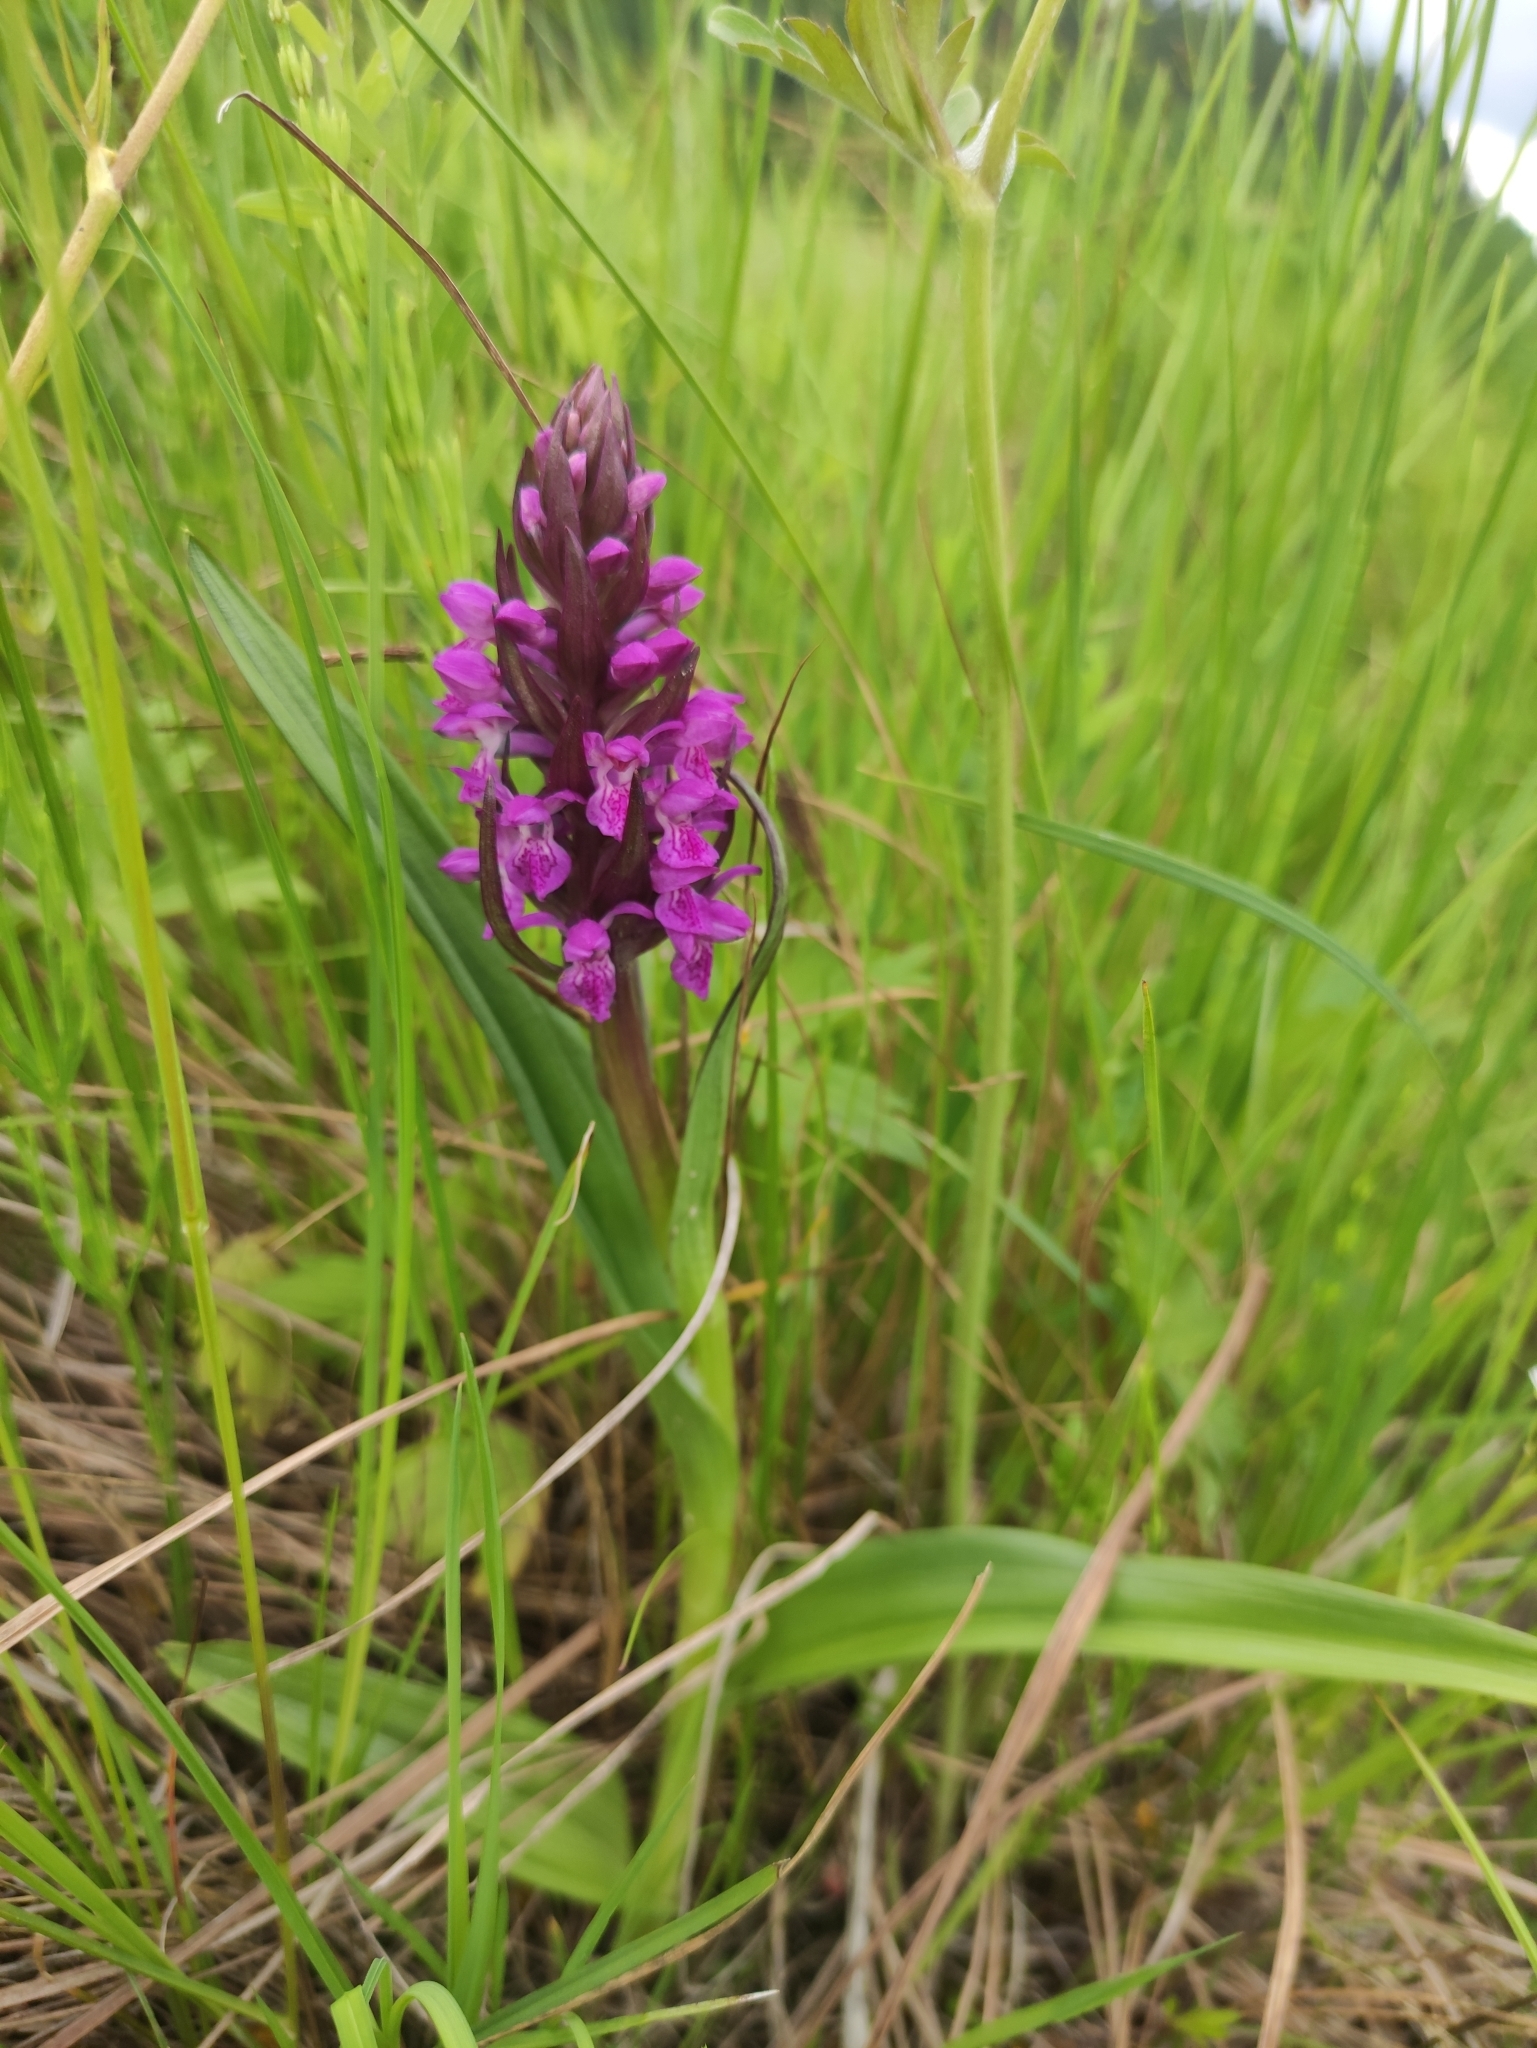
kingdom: Plantae
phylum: Tracheophyta
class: Liliopsida
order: Asparagales
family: Orchidaceae
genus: Dactylorhiza
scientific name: Dactylorhiza incarnata
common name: Early marsh-orchid
